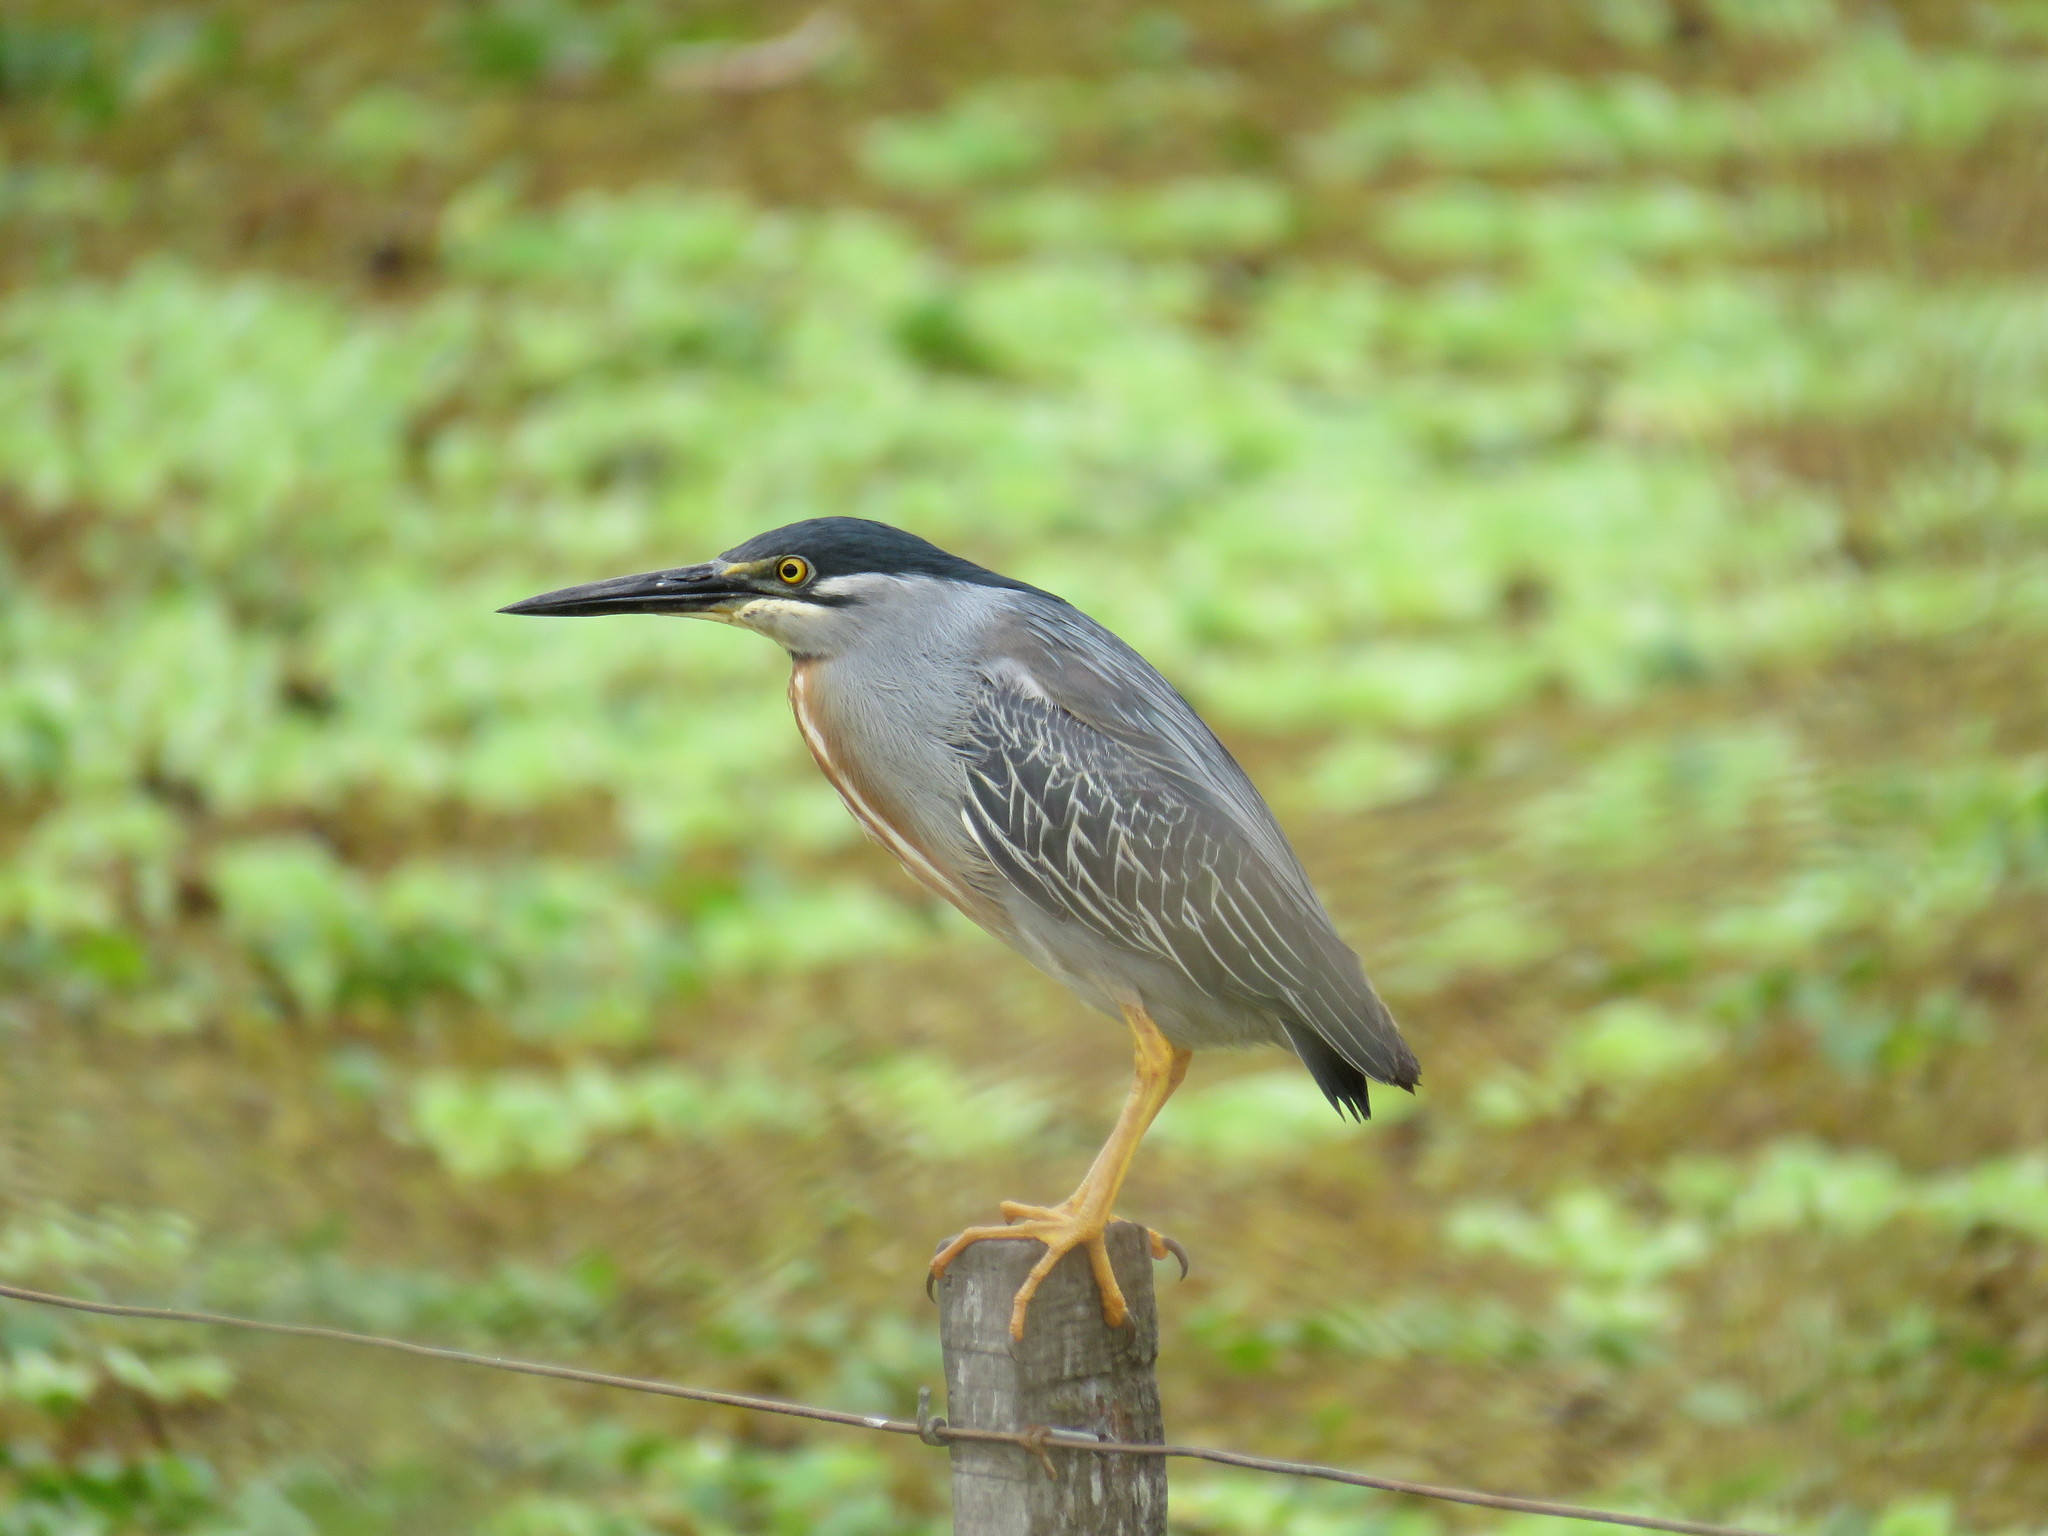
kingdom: Animalia
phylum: Chordata
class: Aves
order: Pelecaniformes
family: Ardeidae
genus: Butorides
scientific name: Butorides striata
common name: Striated heron
